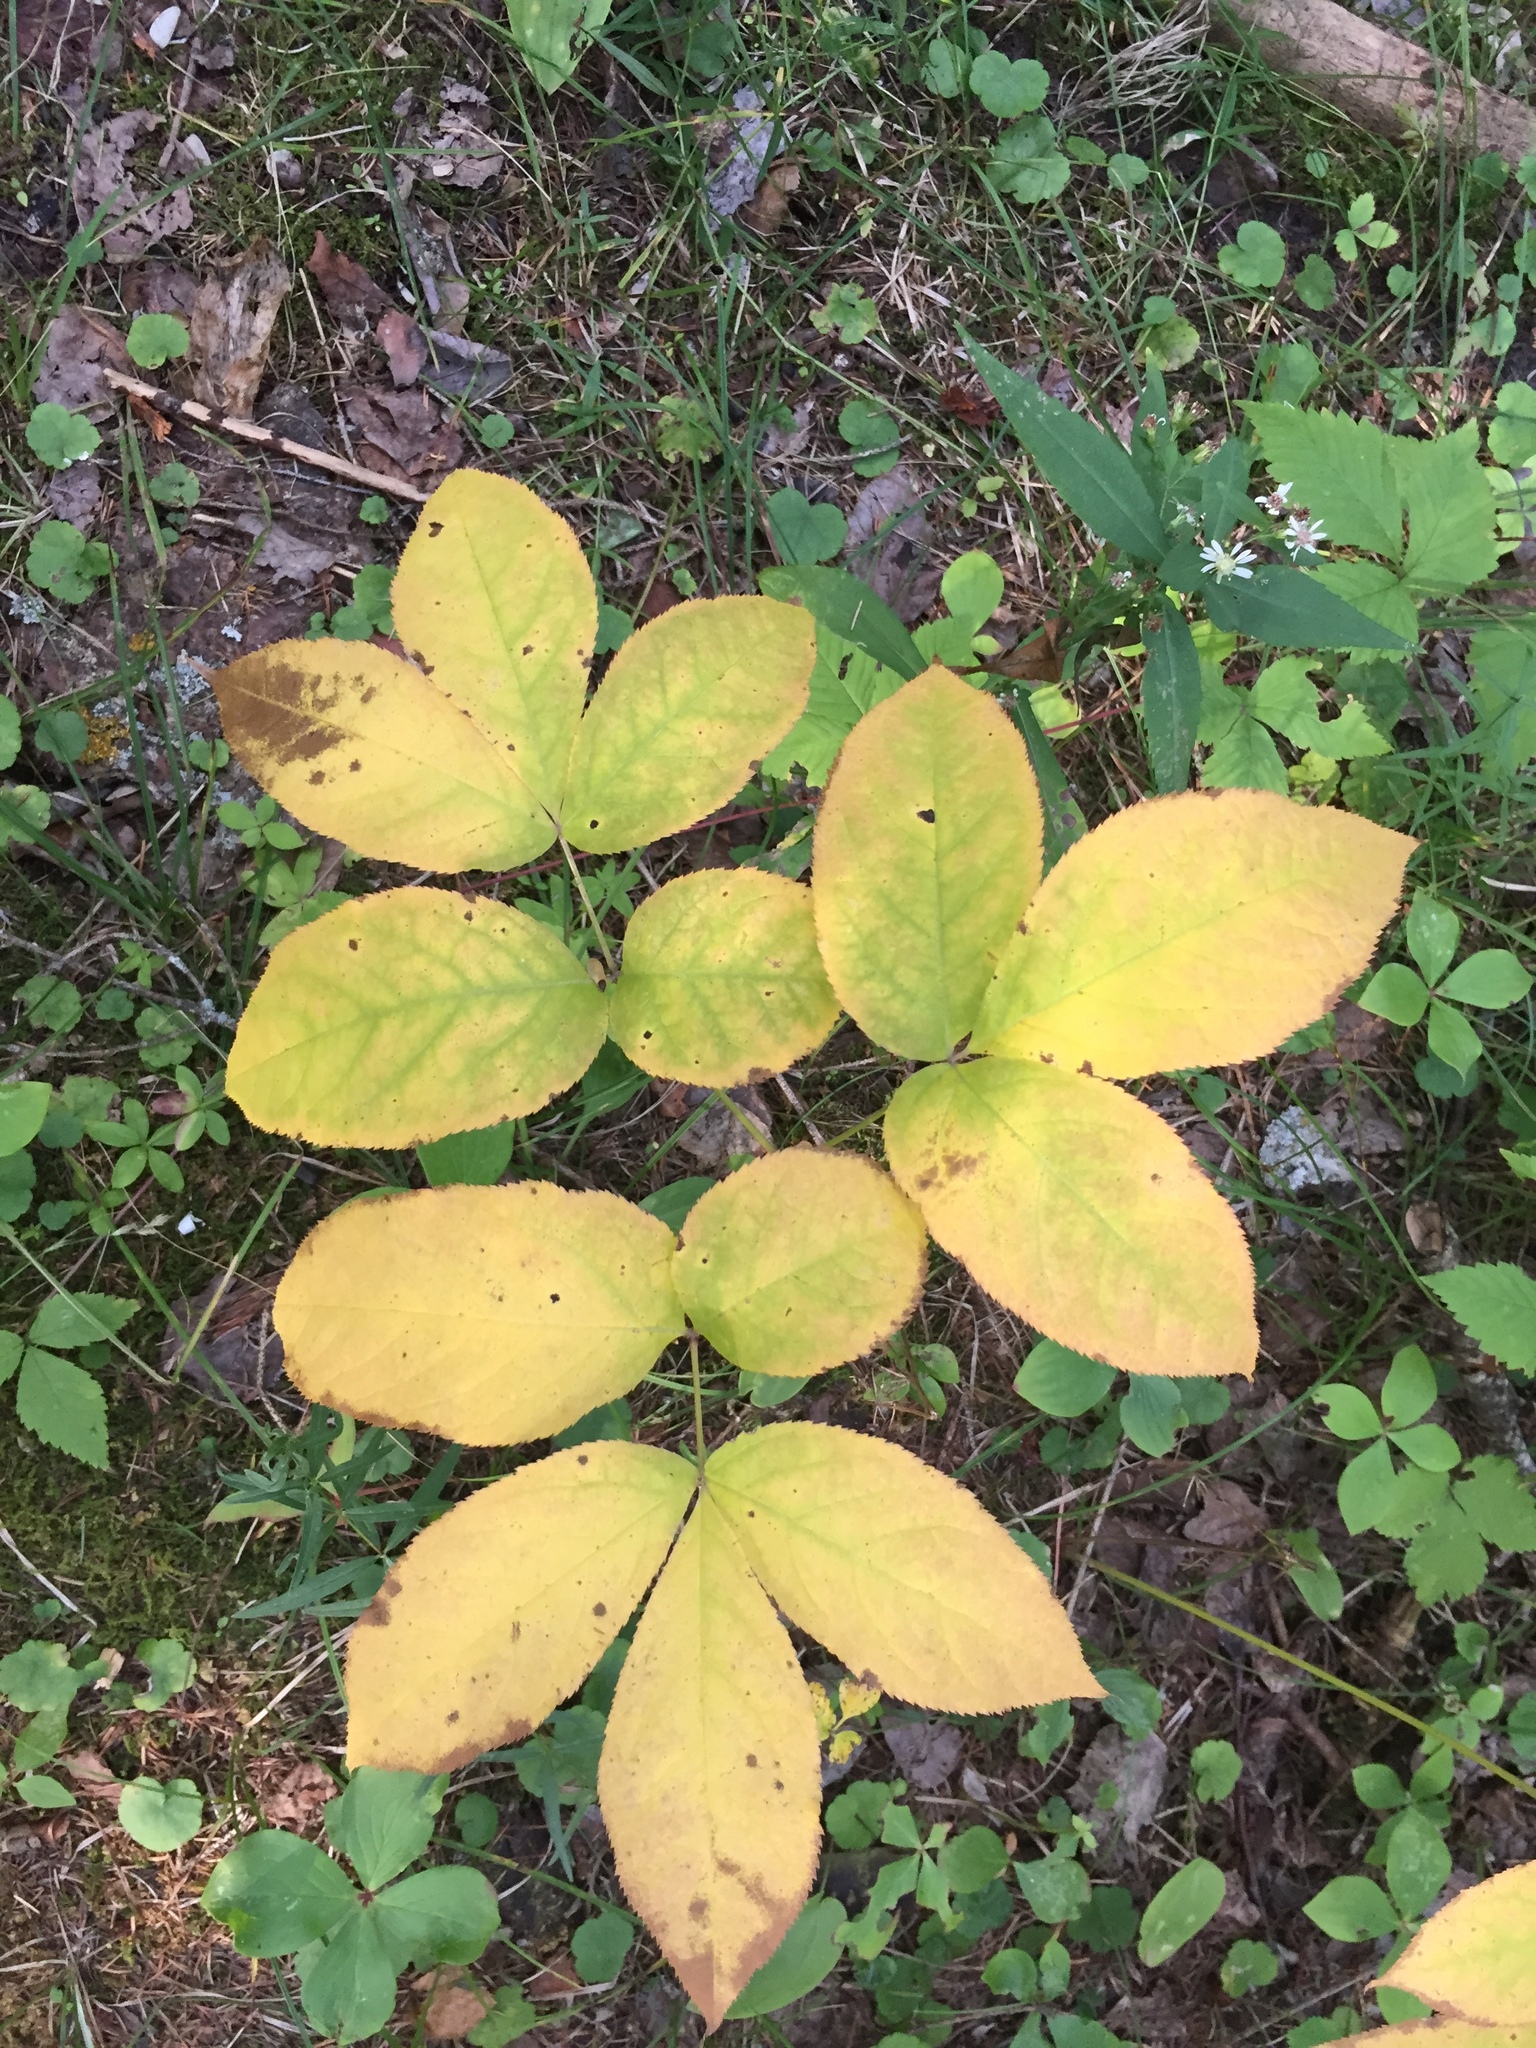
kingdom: Plantae
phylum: Tracheophyta
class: Magnoliopsida
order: Apiales
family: Araliaceae
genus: Aralia
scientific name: Aralia nudicaulis
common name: Wild sarsaparilla
